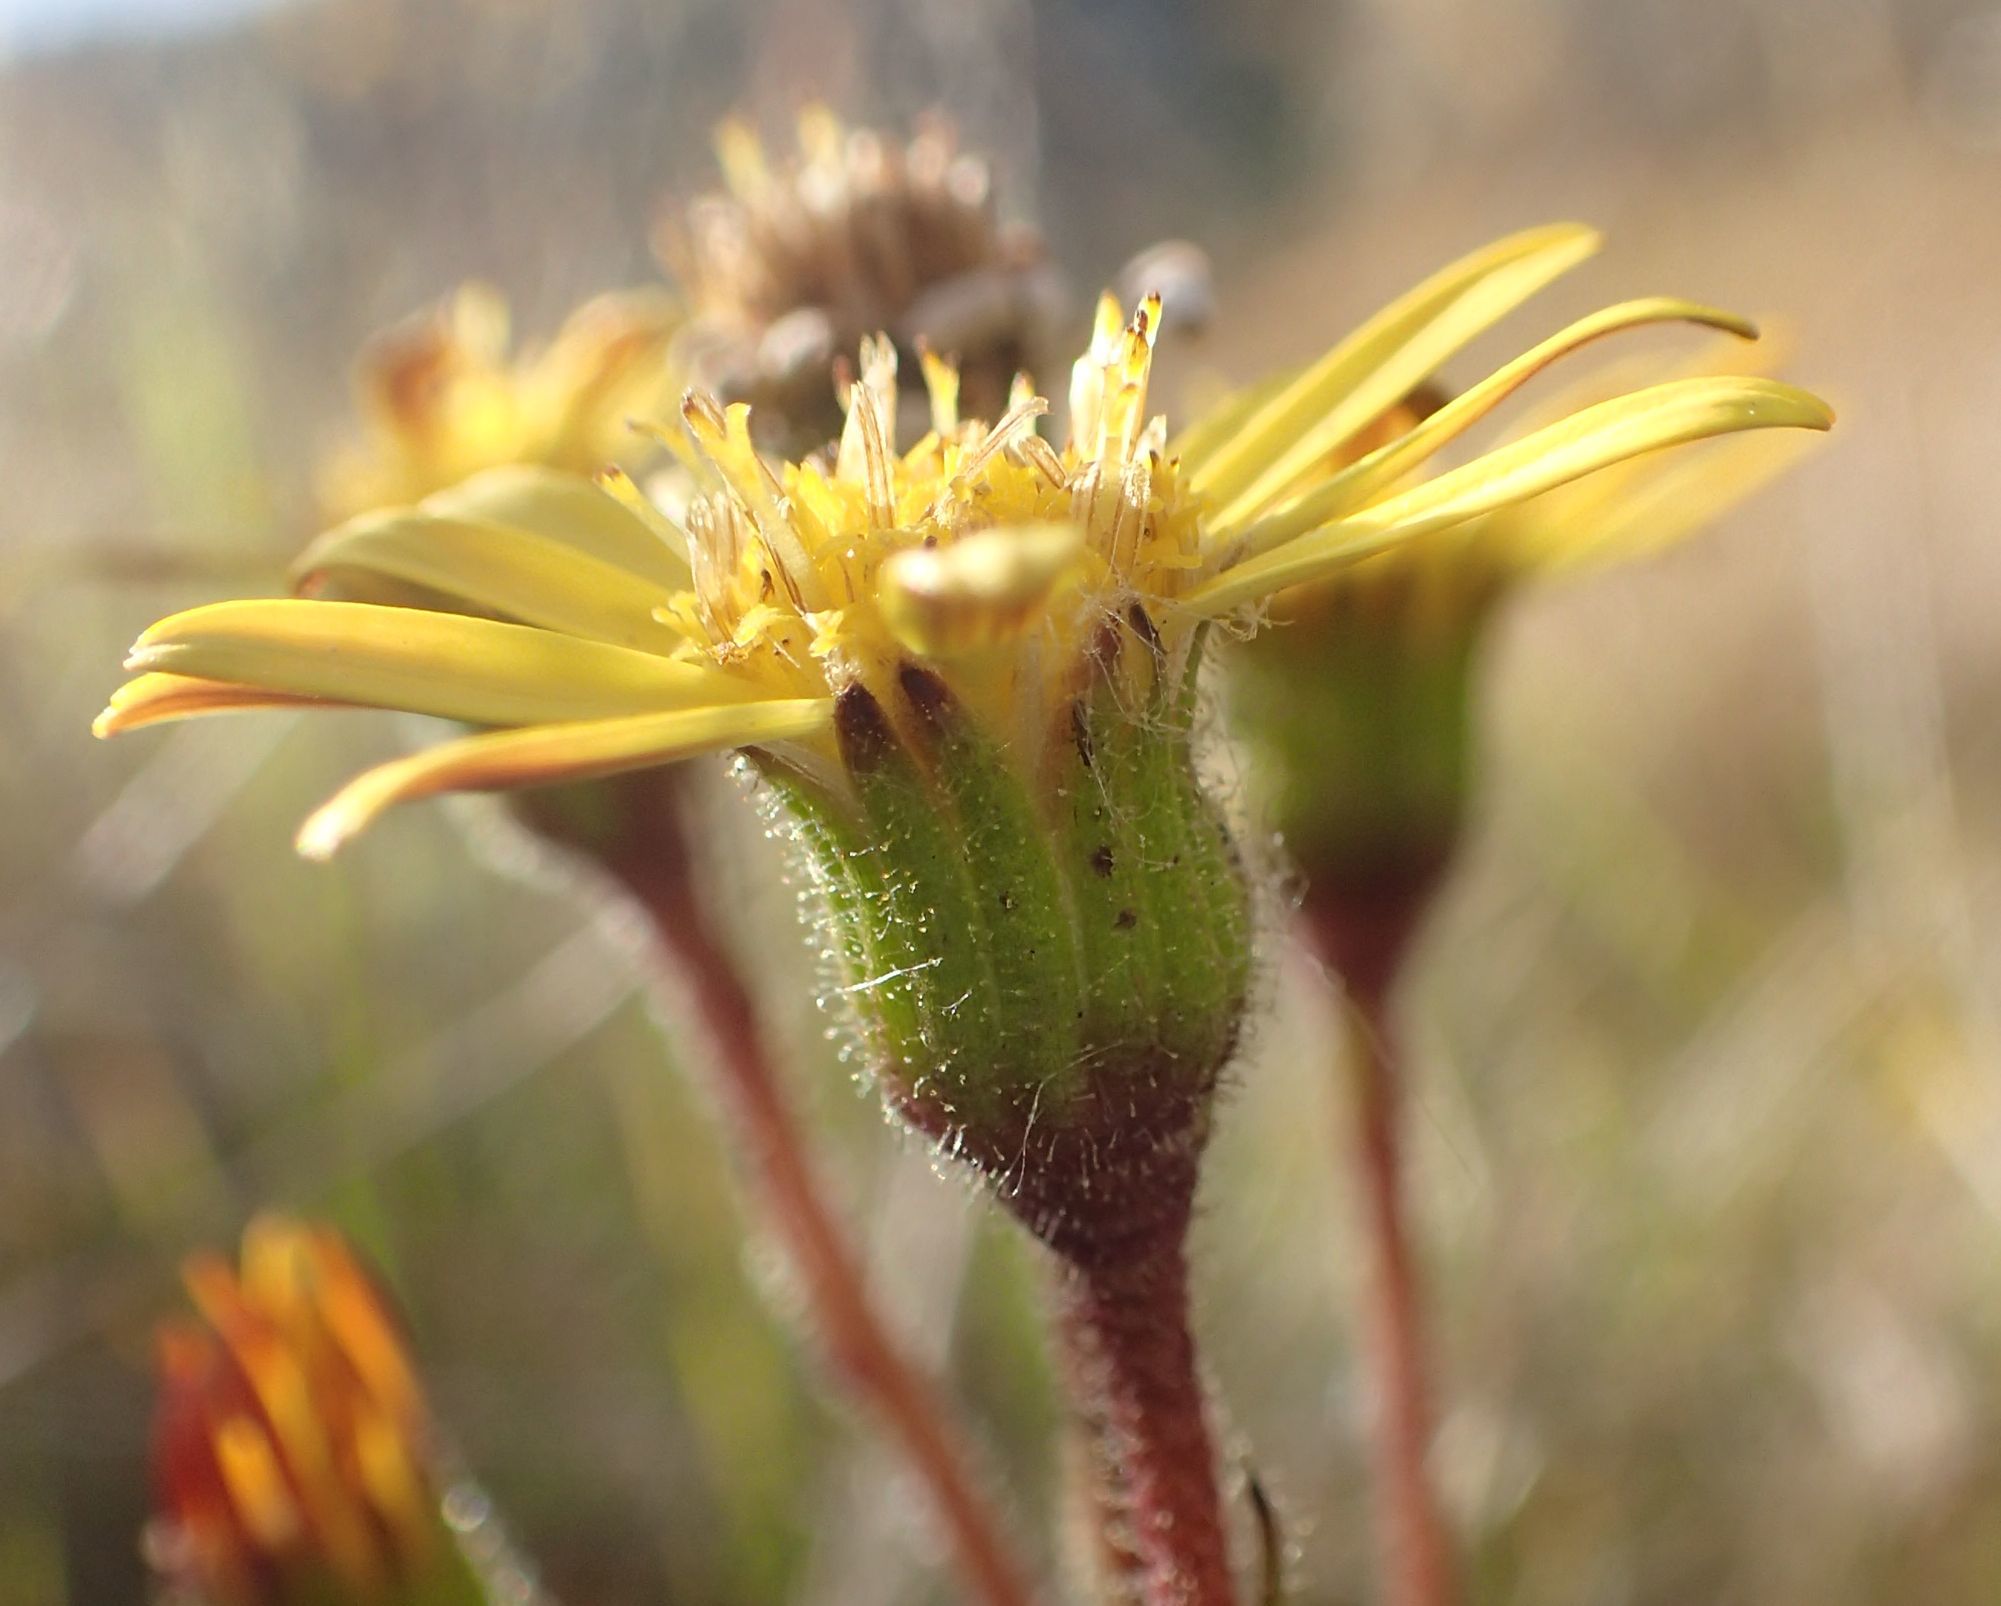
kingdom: Plantae
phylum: Tracheophyta
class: Magnoliopsida
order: Asterales
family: Asteraceae
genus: Brachyglottis
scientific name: Brachyglottis southlandica
